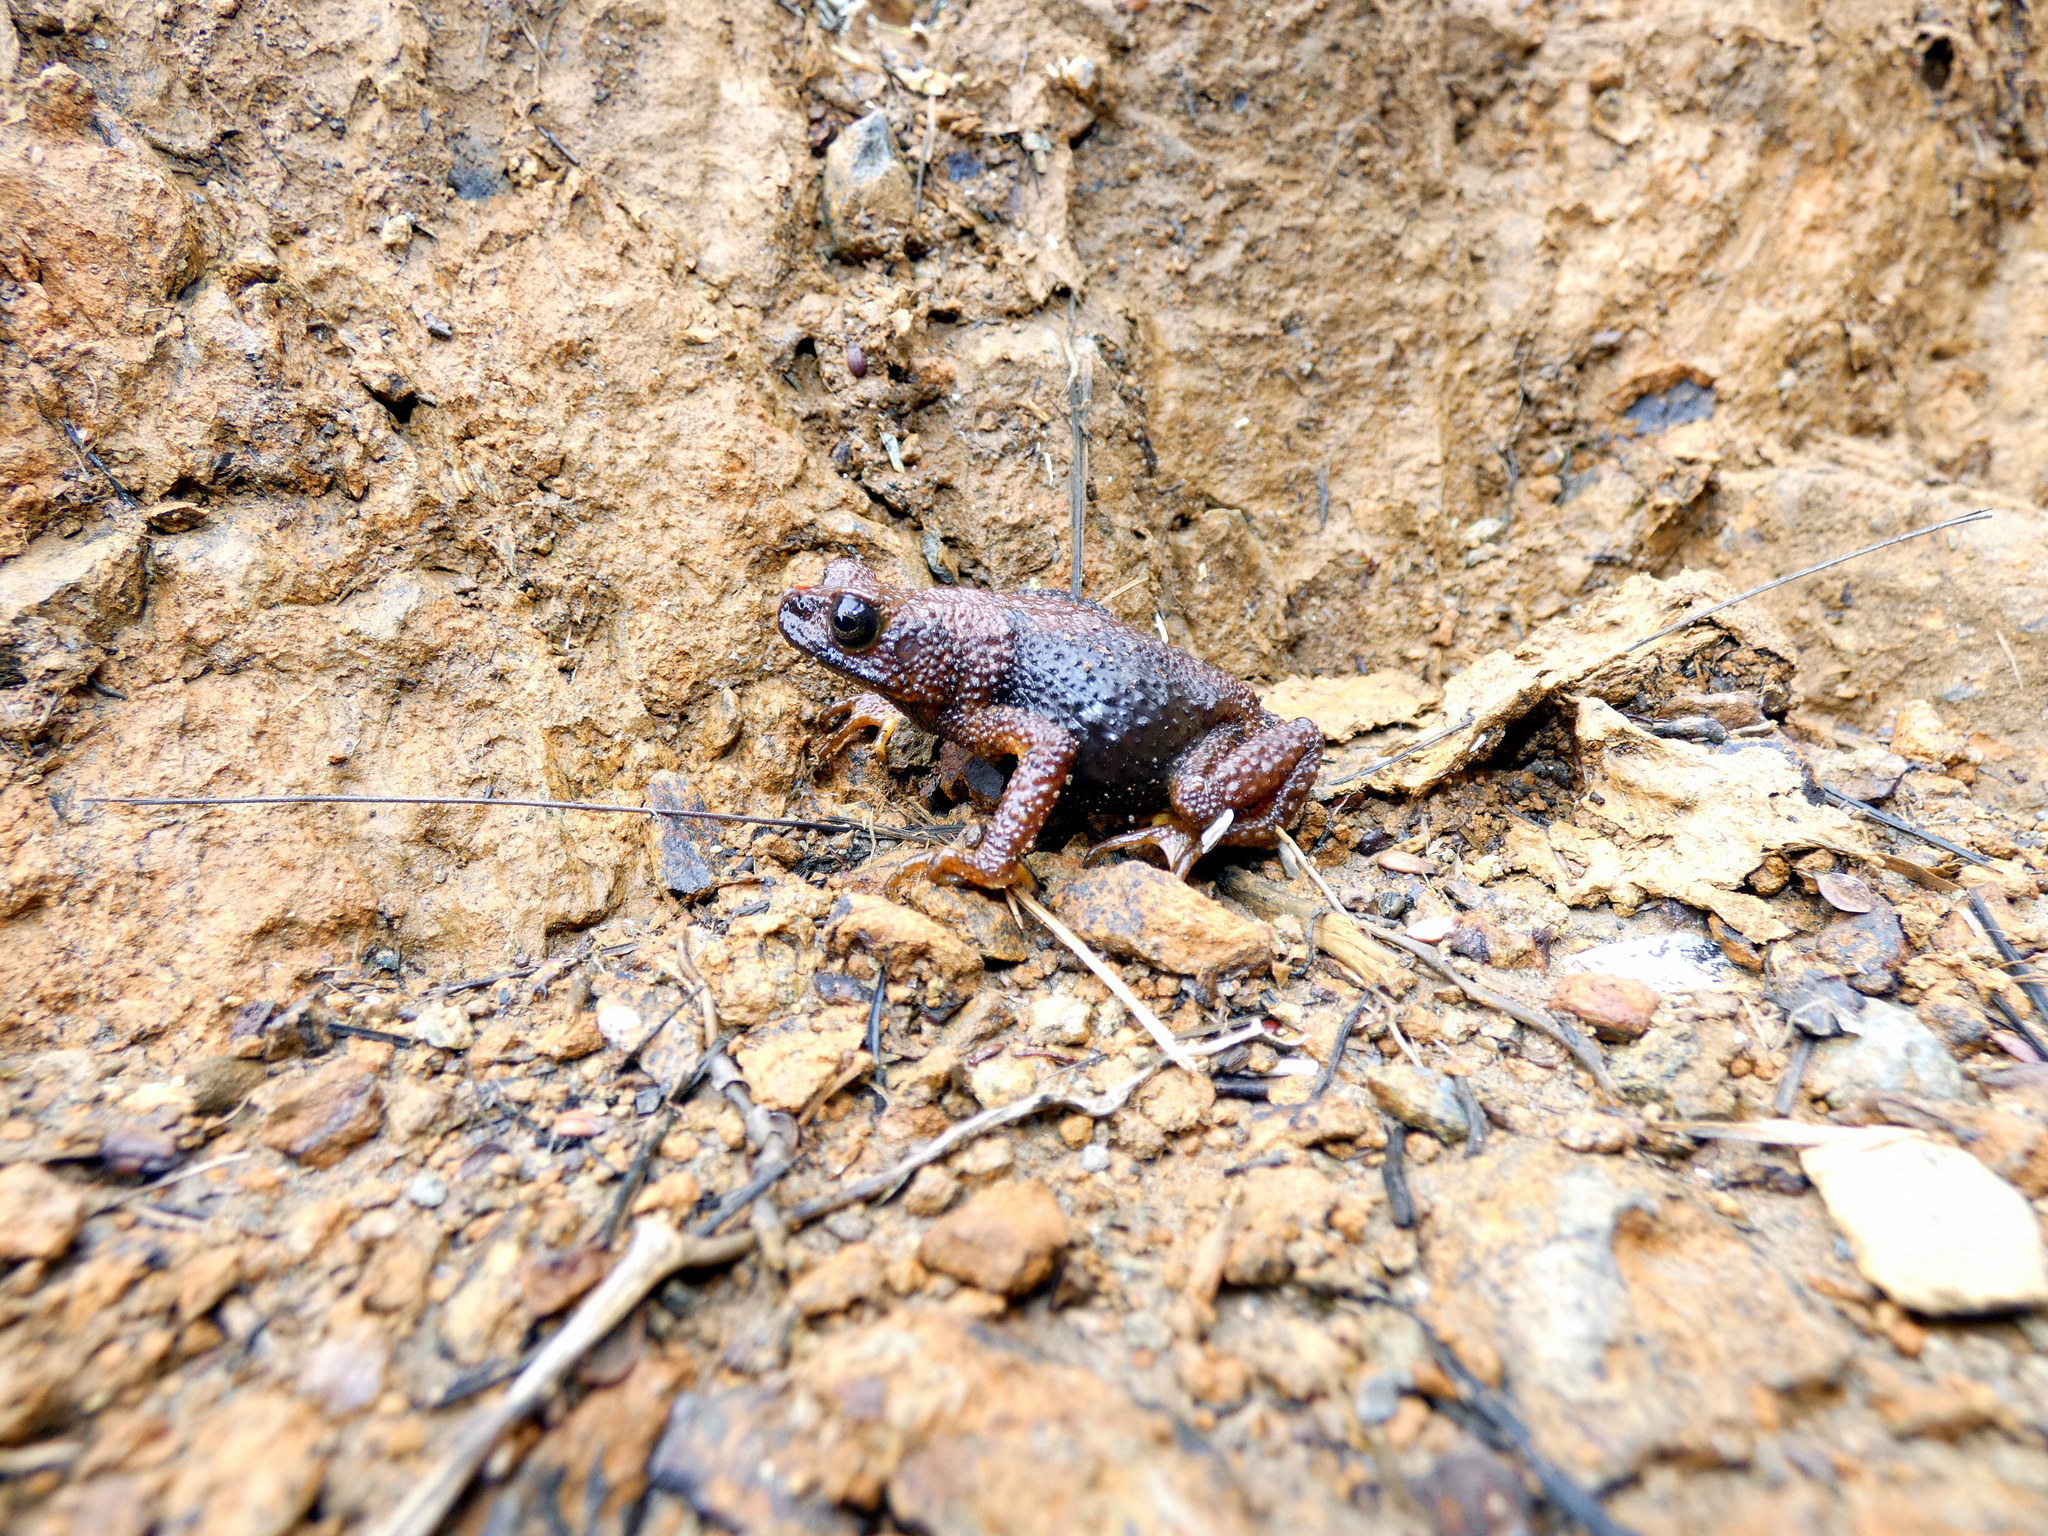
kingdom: Animalia
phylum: Chordata
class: Amphibia
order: Anura
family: Bufonidae
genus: Ansonia
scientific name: Ansonia fuliginea
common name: Montane slender toad
